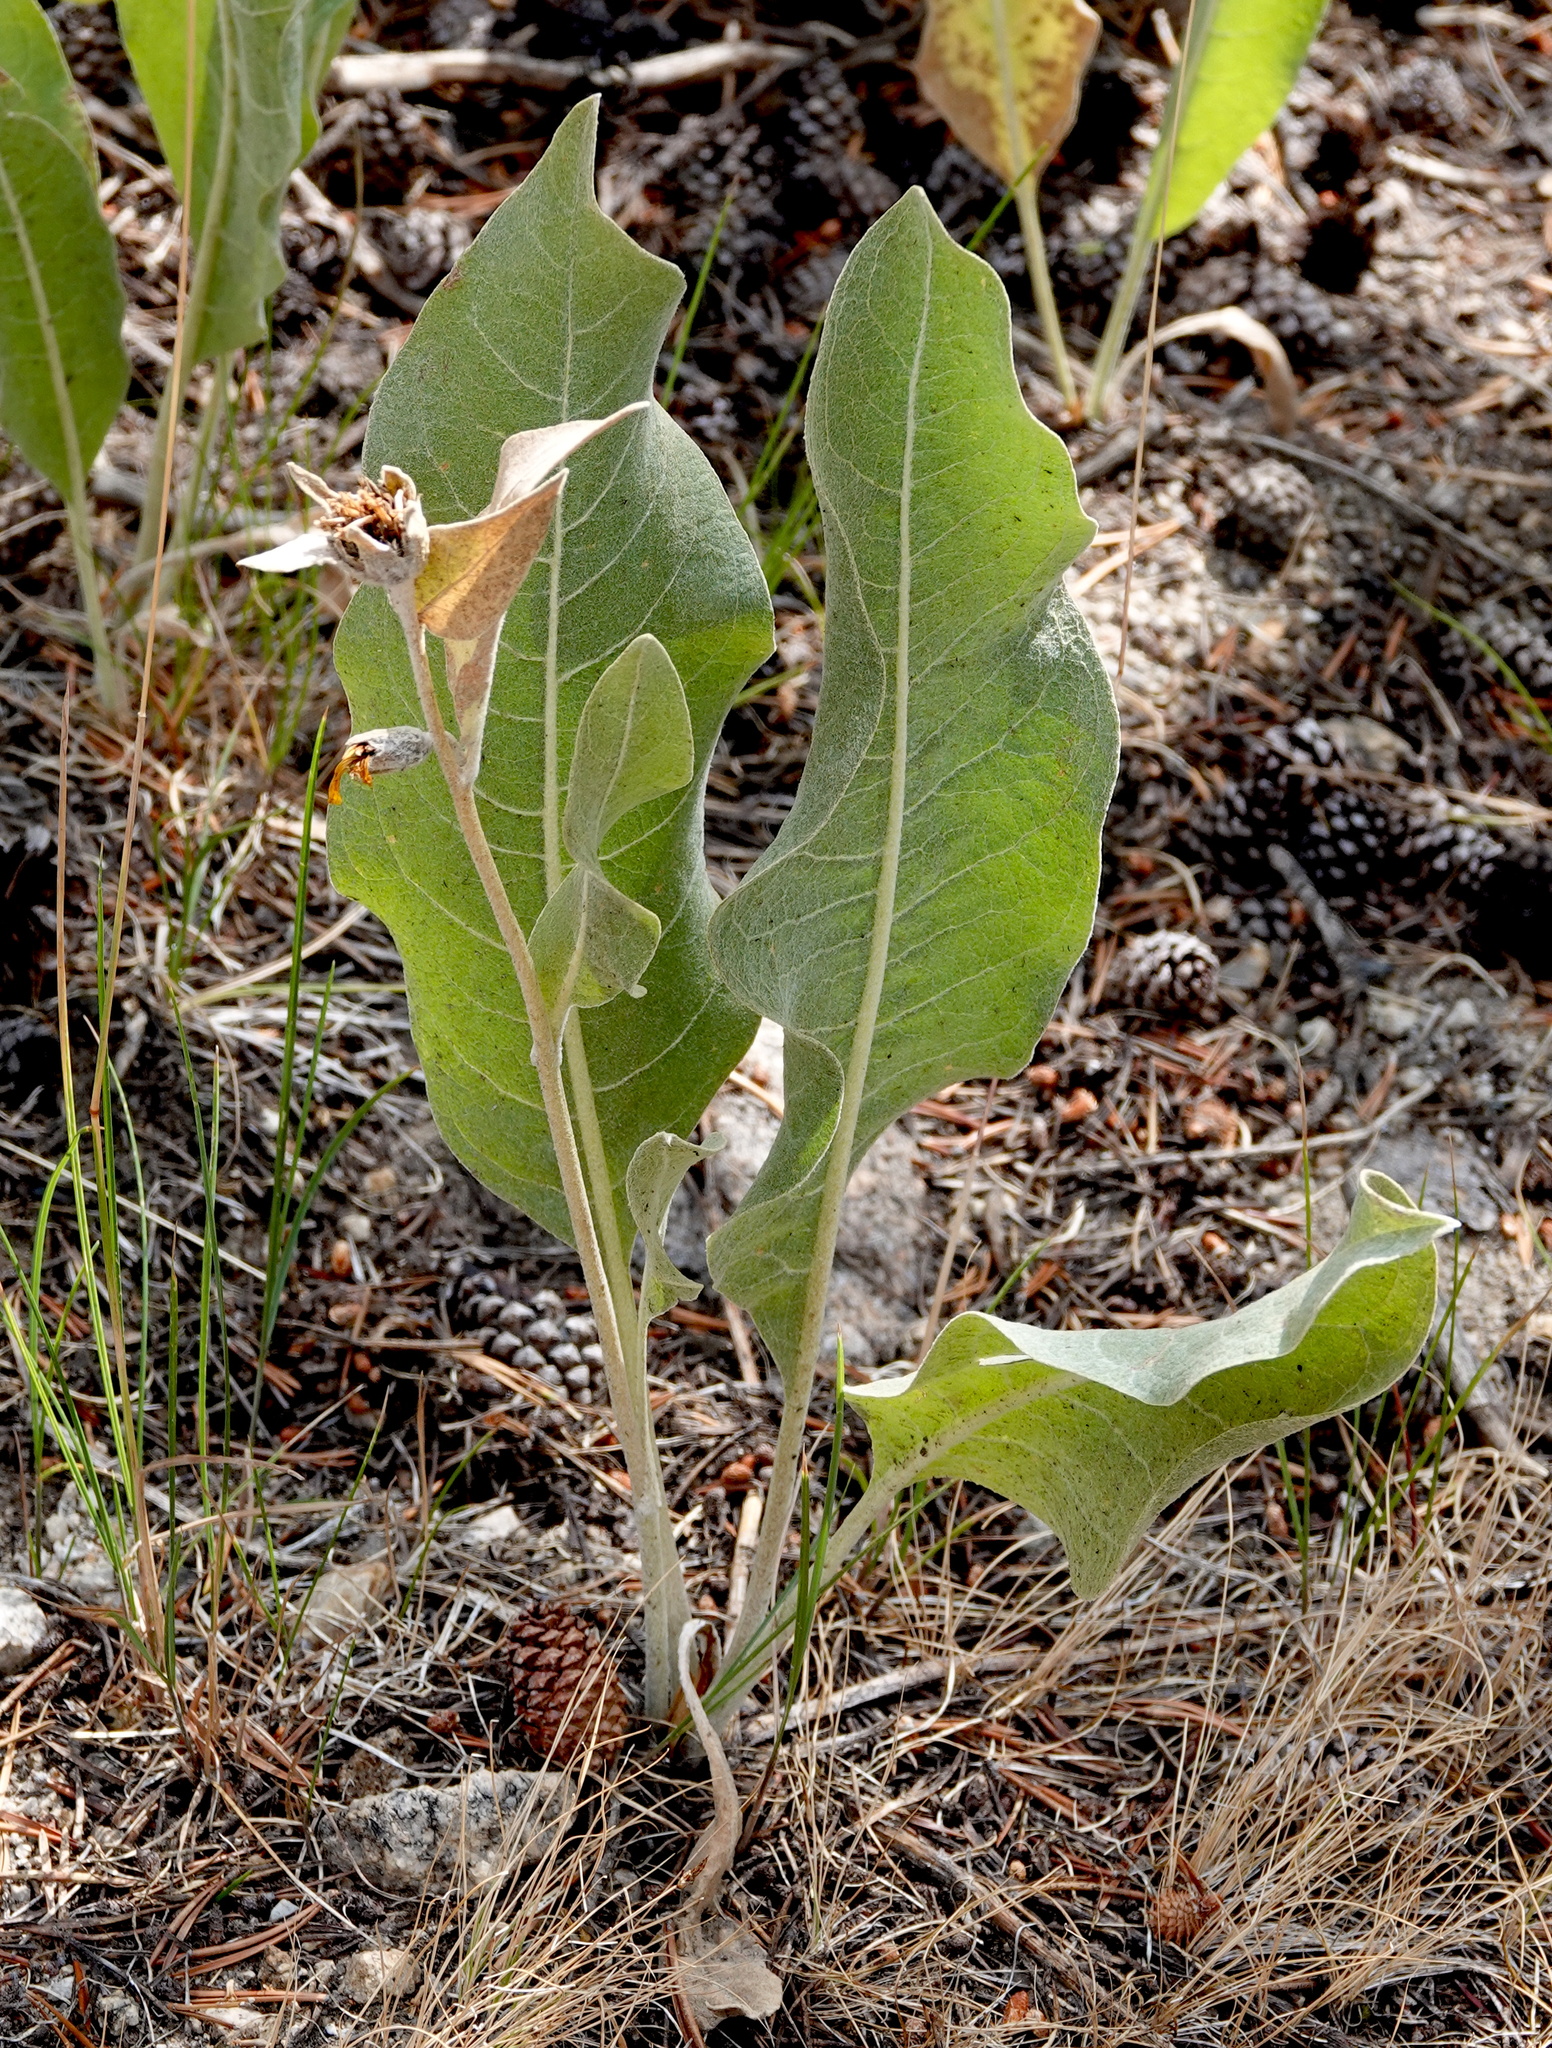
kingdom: Plantae
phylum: Tracheophyta
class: Magnoliopsida
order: Asterales
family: Asteraceae
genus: Wyethia
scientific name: Wyethia mollis
